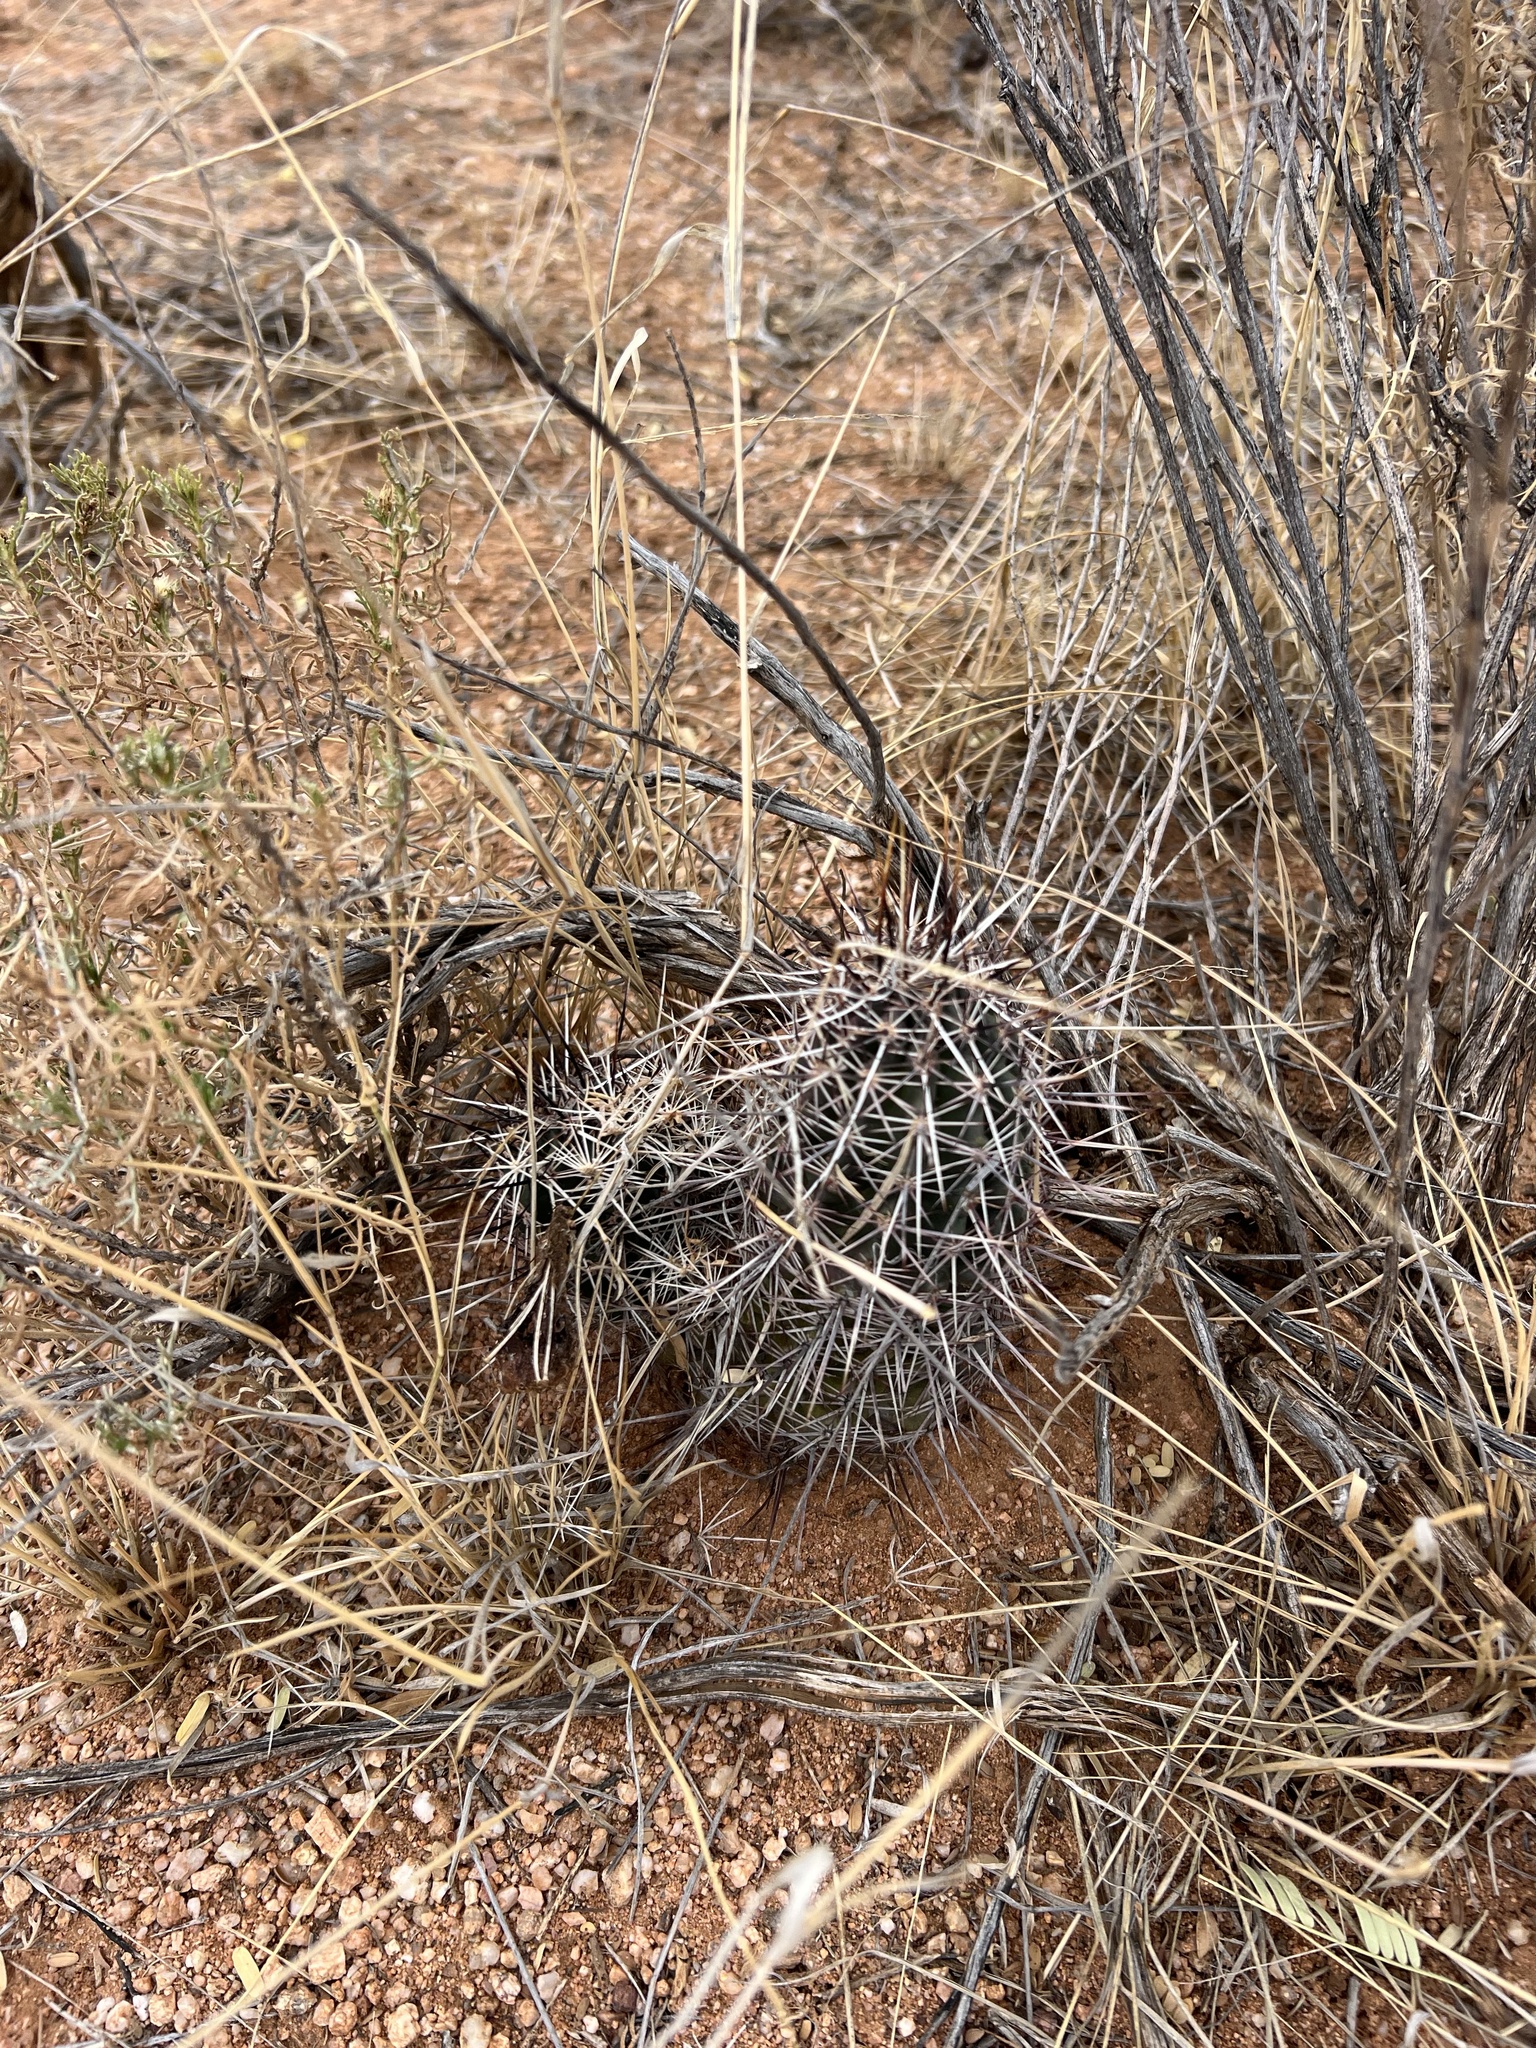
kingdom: Plantae
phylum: Tracheophyta
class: Magnoliopsida
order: Caryophyllales
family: Cactaceae
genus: Echinocereus
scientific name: Echinocereus fasciculatus
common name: Bundle hedgehog
